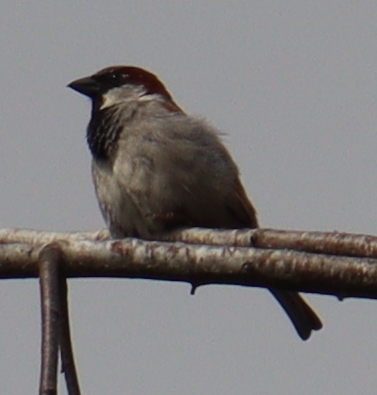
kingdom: Animalia
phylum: Chordata
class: Aves
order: Passeriformes
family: Passeridae
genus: Passer
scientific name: Passer domesticus
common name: House sparrow
